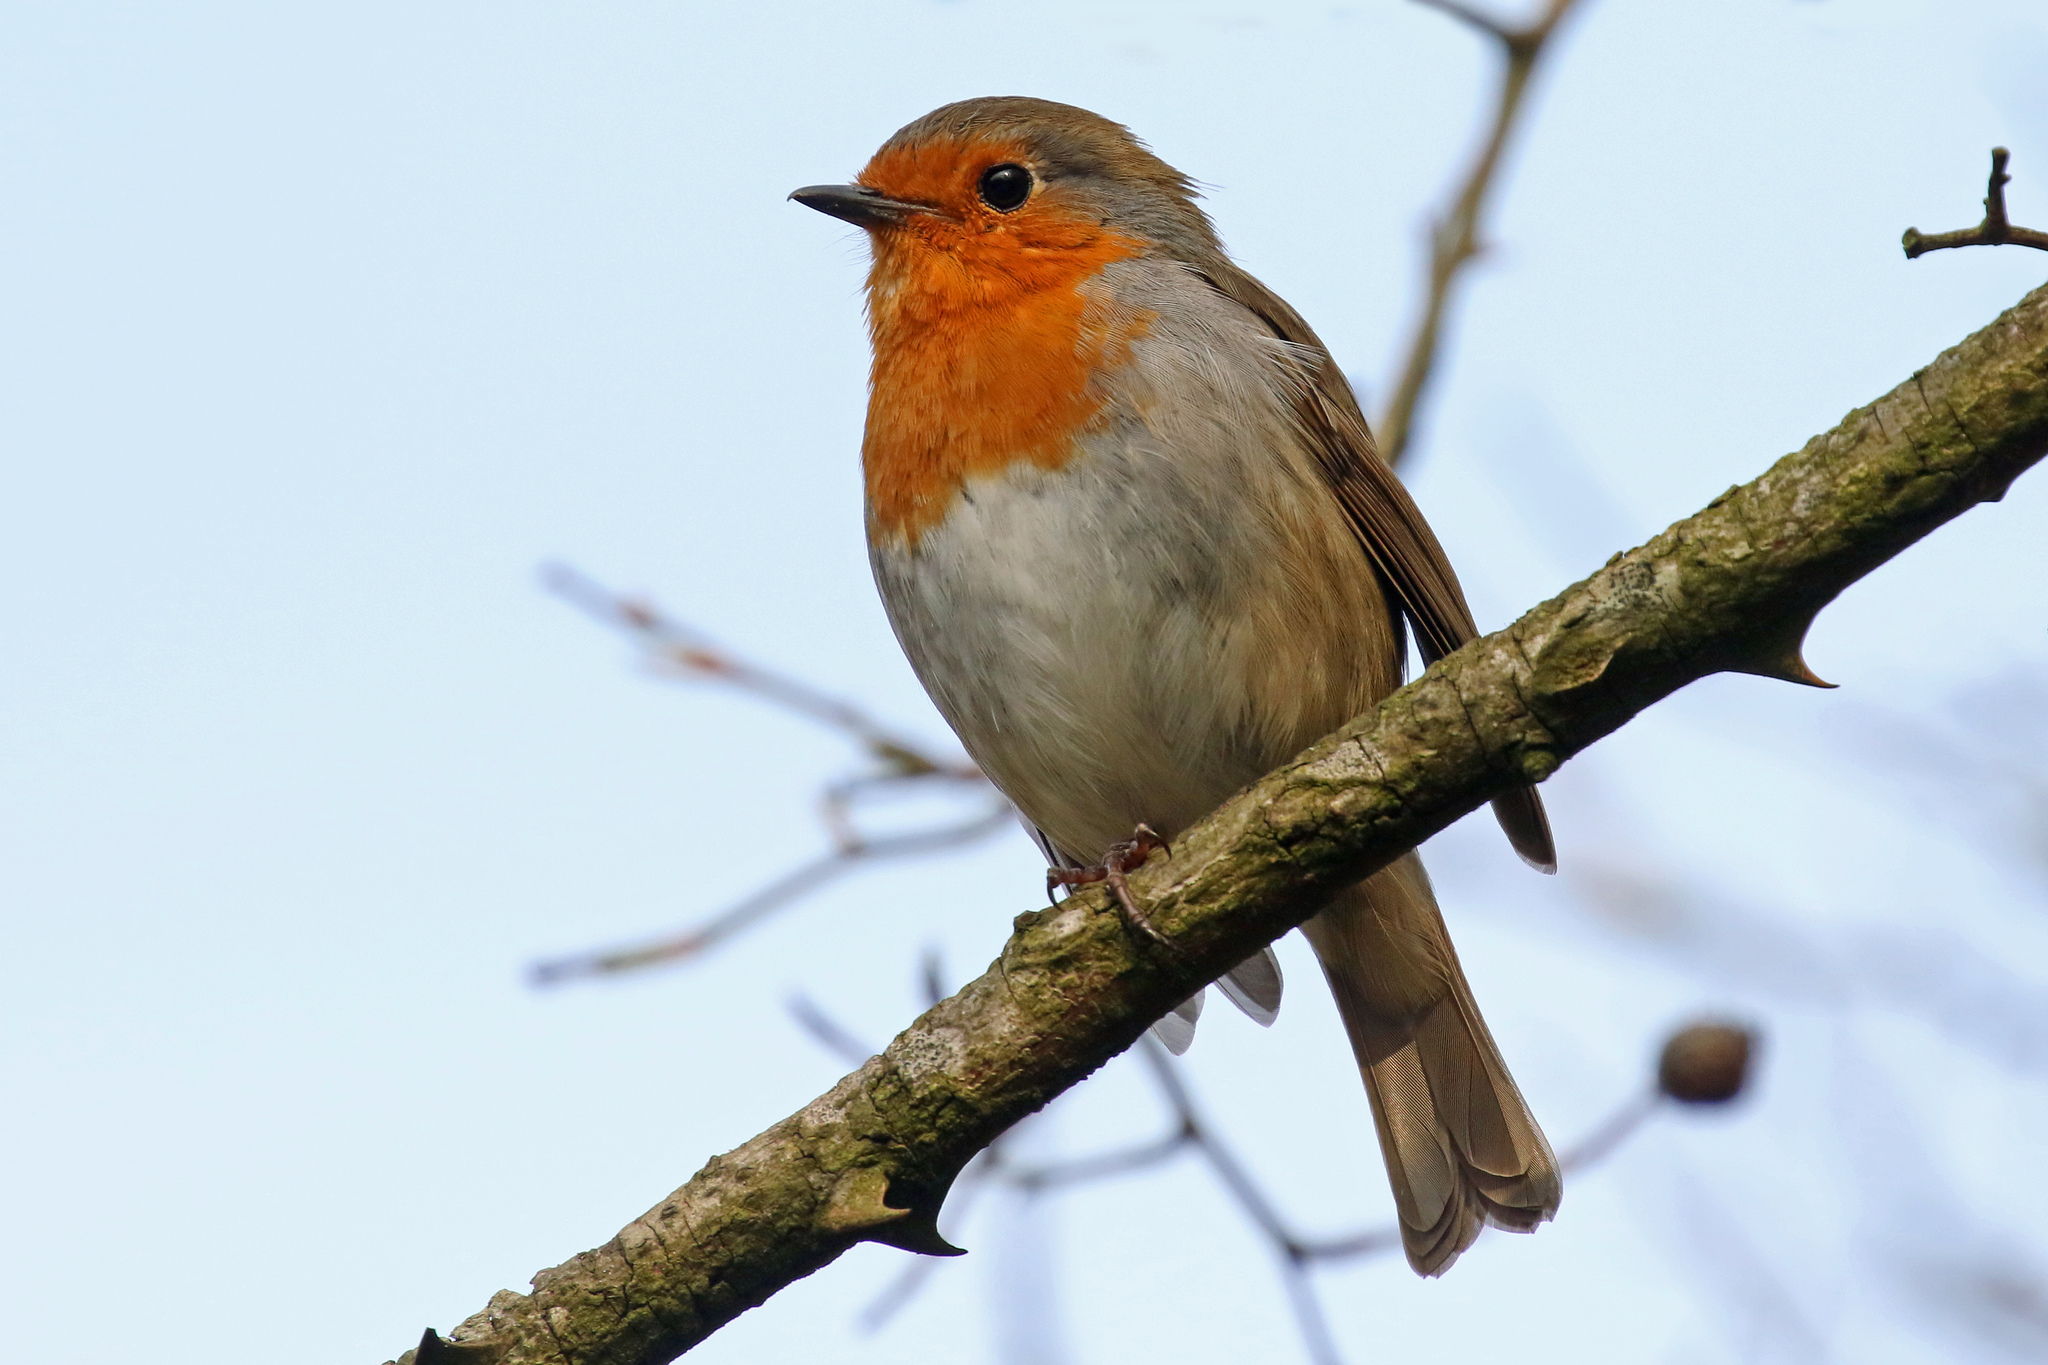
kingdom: Animalia
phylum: Chordata
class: Aves
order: Passeriformes
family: Muscicapidae
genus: Erithacus
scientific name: Erithacus rubecula
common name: European robin
